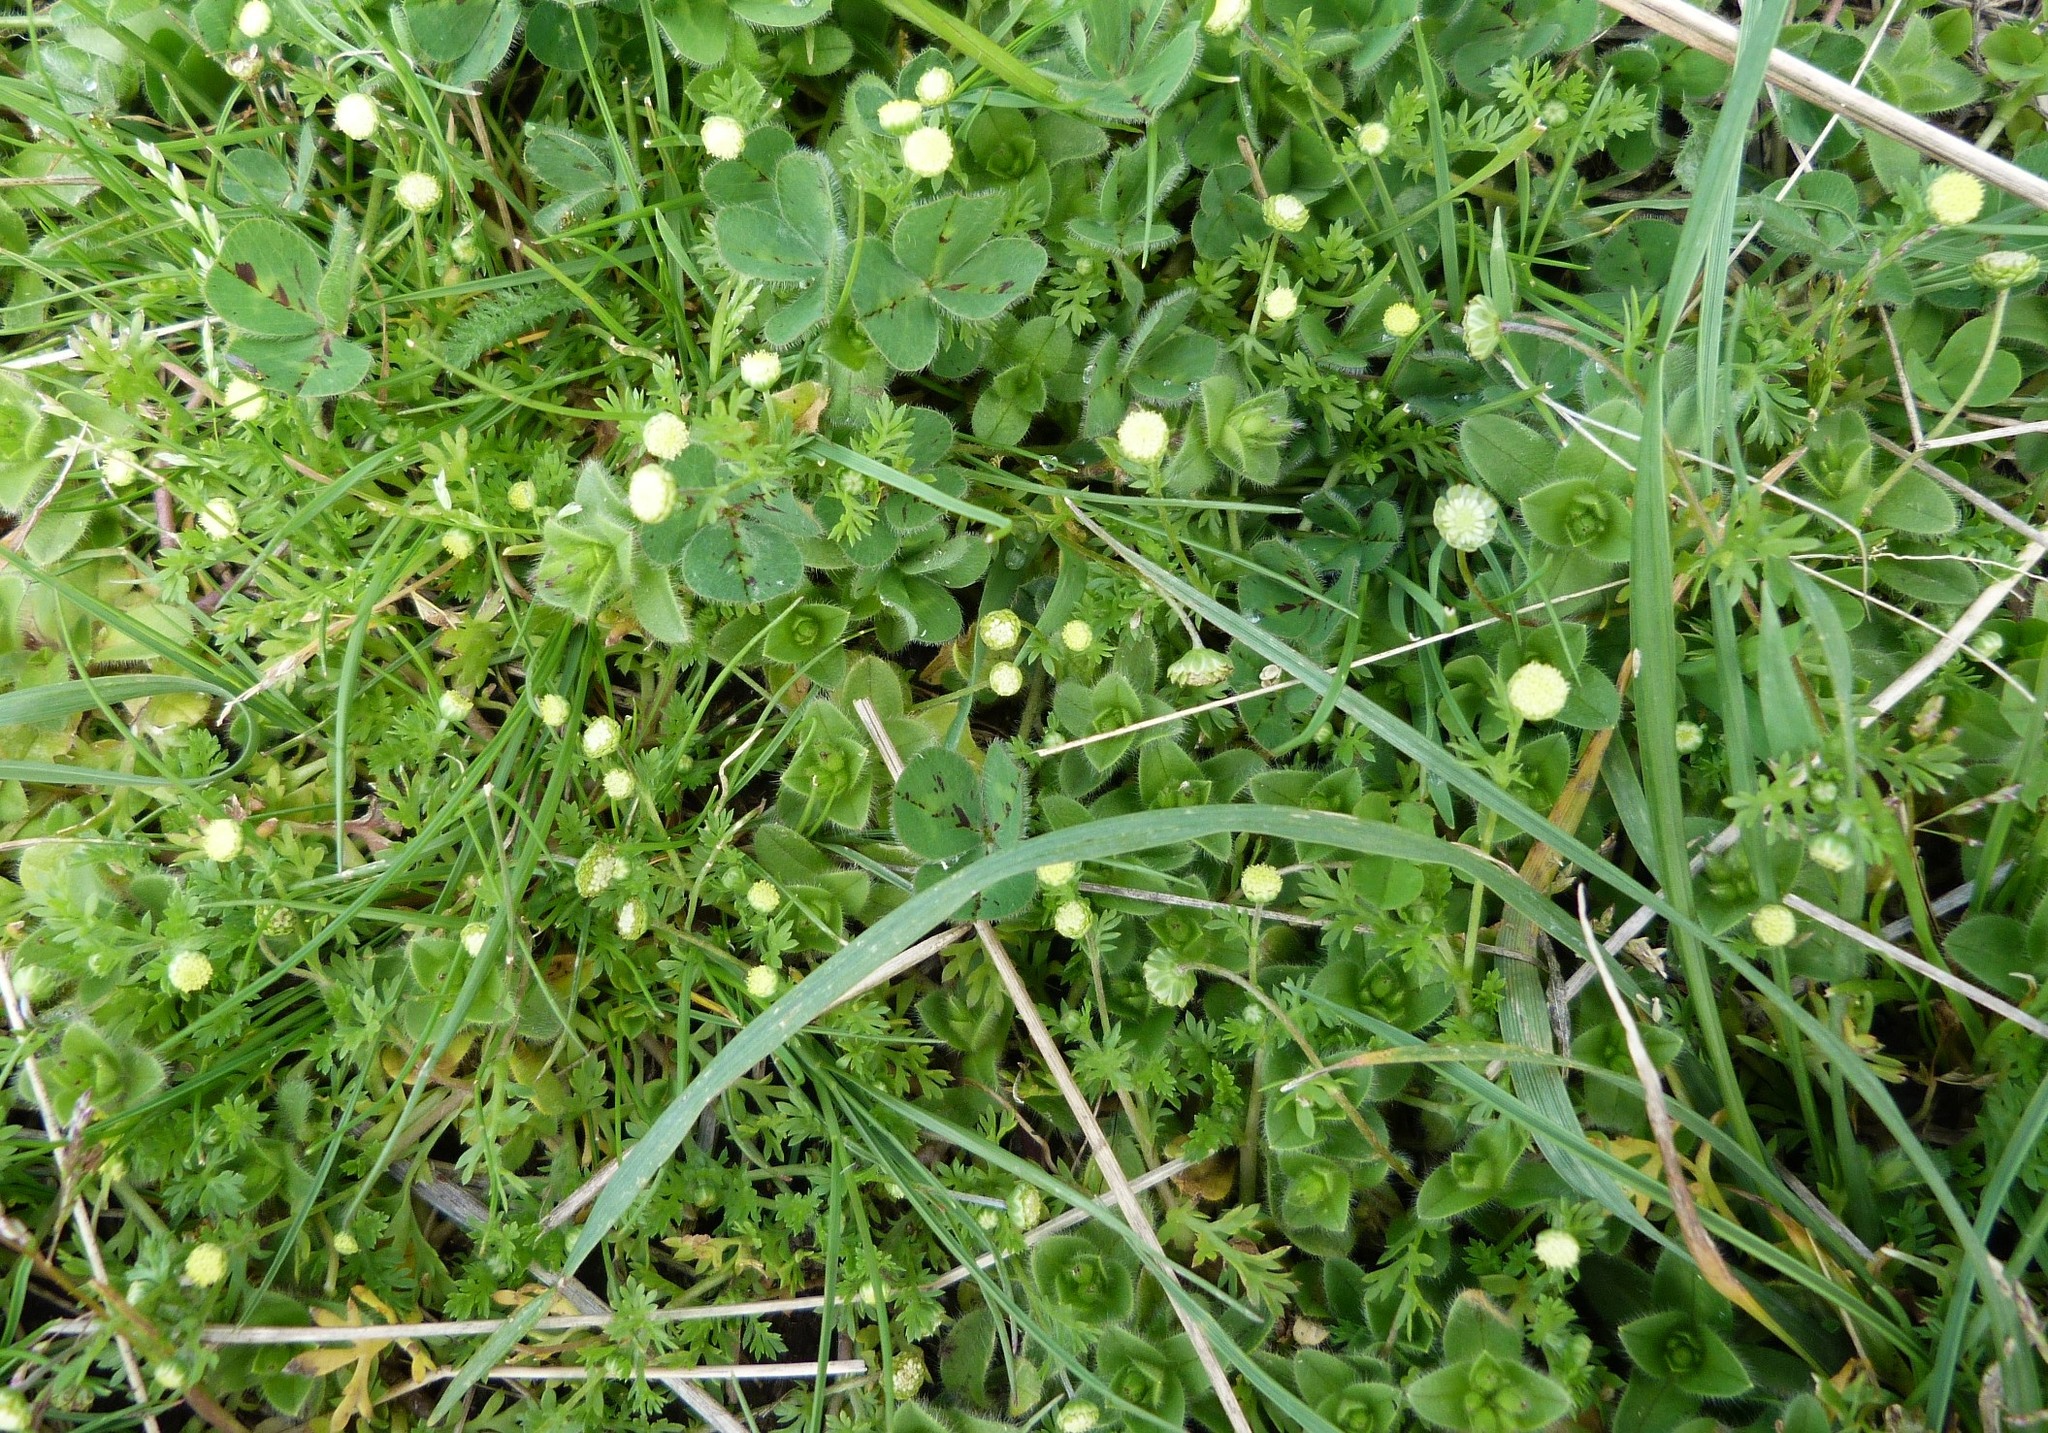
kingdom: Plantae
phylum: Tracheophyta
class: Magnoliopsida
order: Asterales
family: Asteraceae
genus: Cotula
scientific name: Cotula australis
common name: Australian waterbuttons
